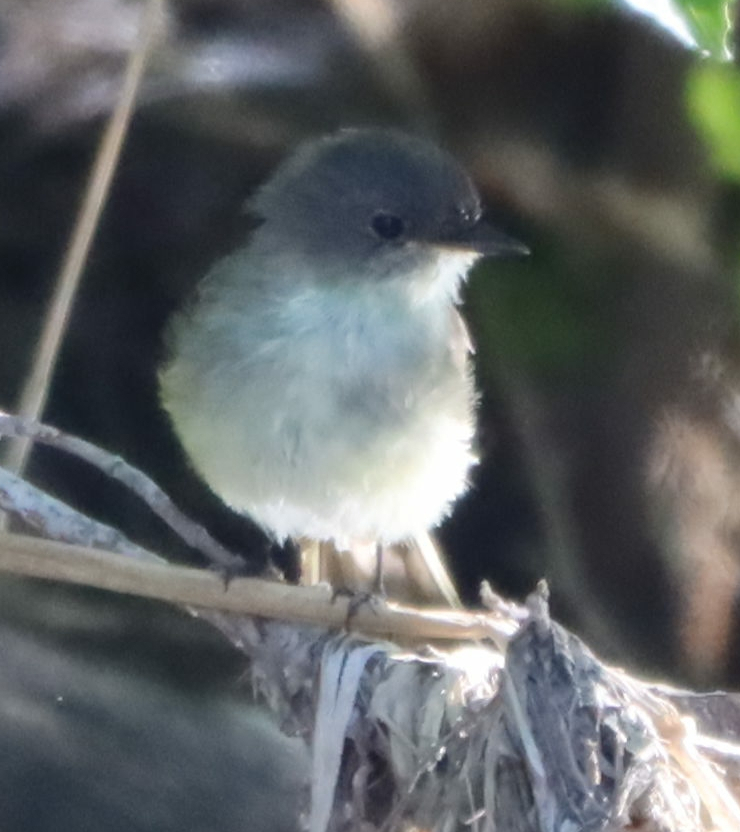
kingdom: Animalia
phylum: Chordata
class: Aves
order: Passeriformes
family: Tyrannidae
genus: Sayornis
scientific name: Sayornis phoebe
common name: Eastern phoebe
